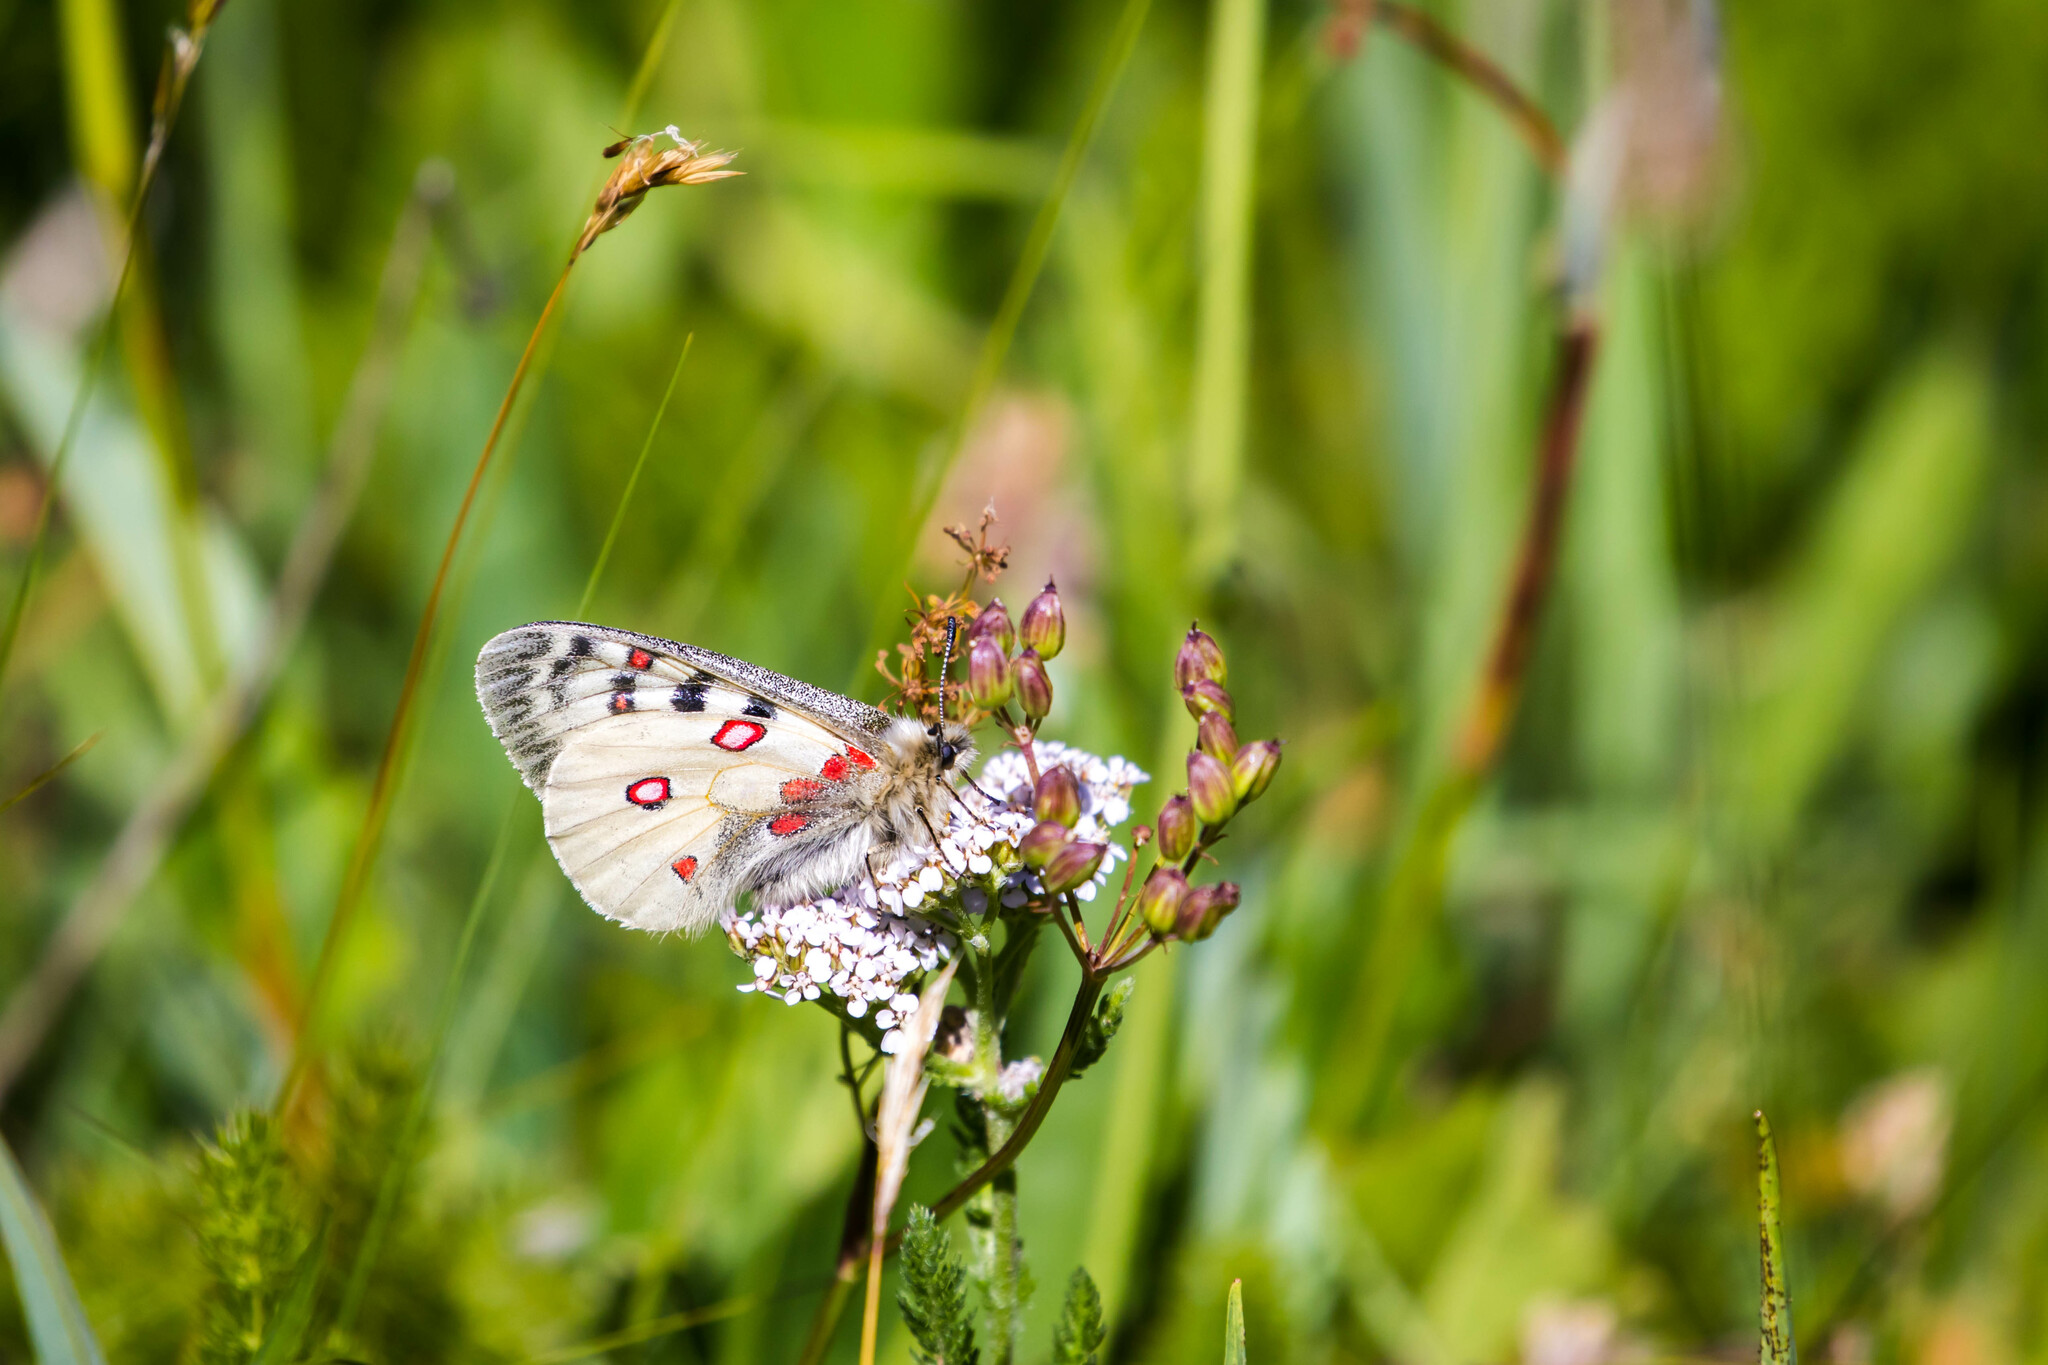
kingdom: Animalia
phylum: Arthropoda
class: Insecta
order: Lepidoptera
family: Papilionidae
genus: Parnassius
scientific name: Parnassius phoebus
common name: Small apollo
